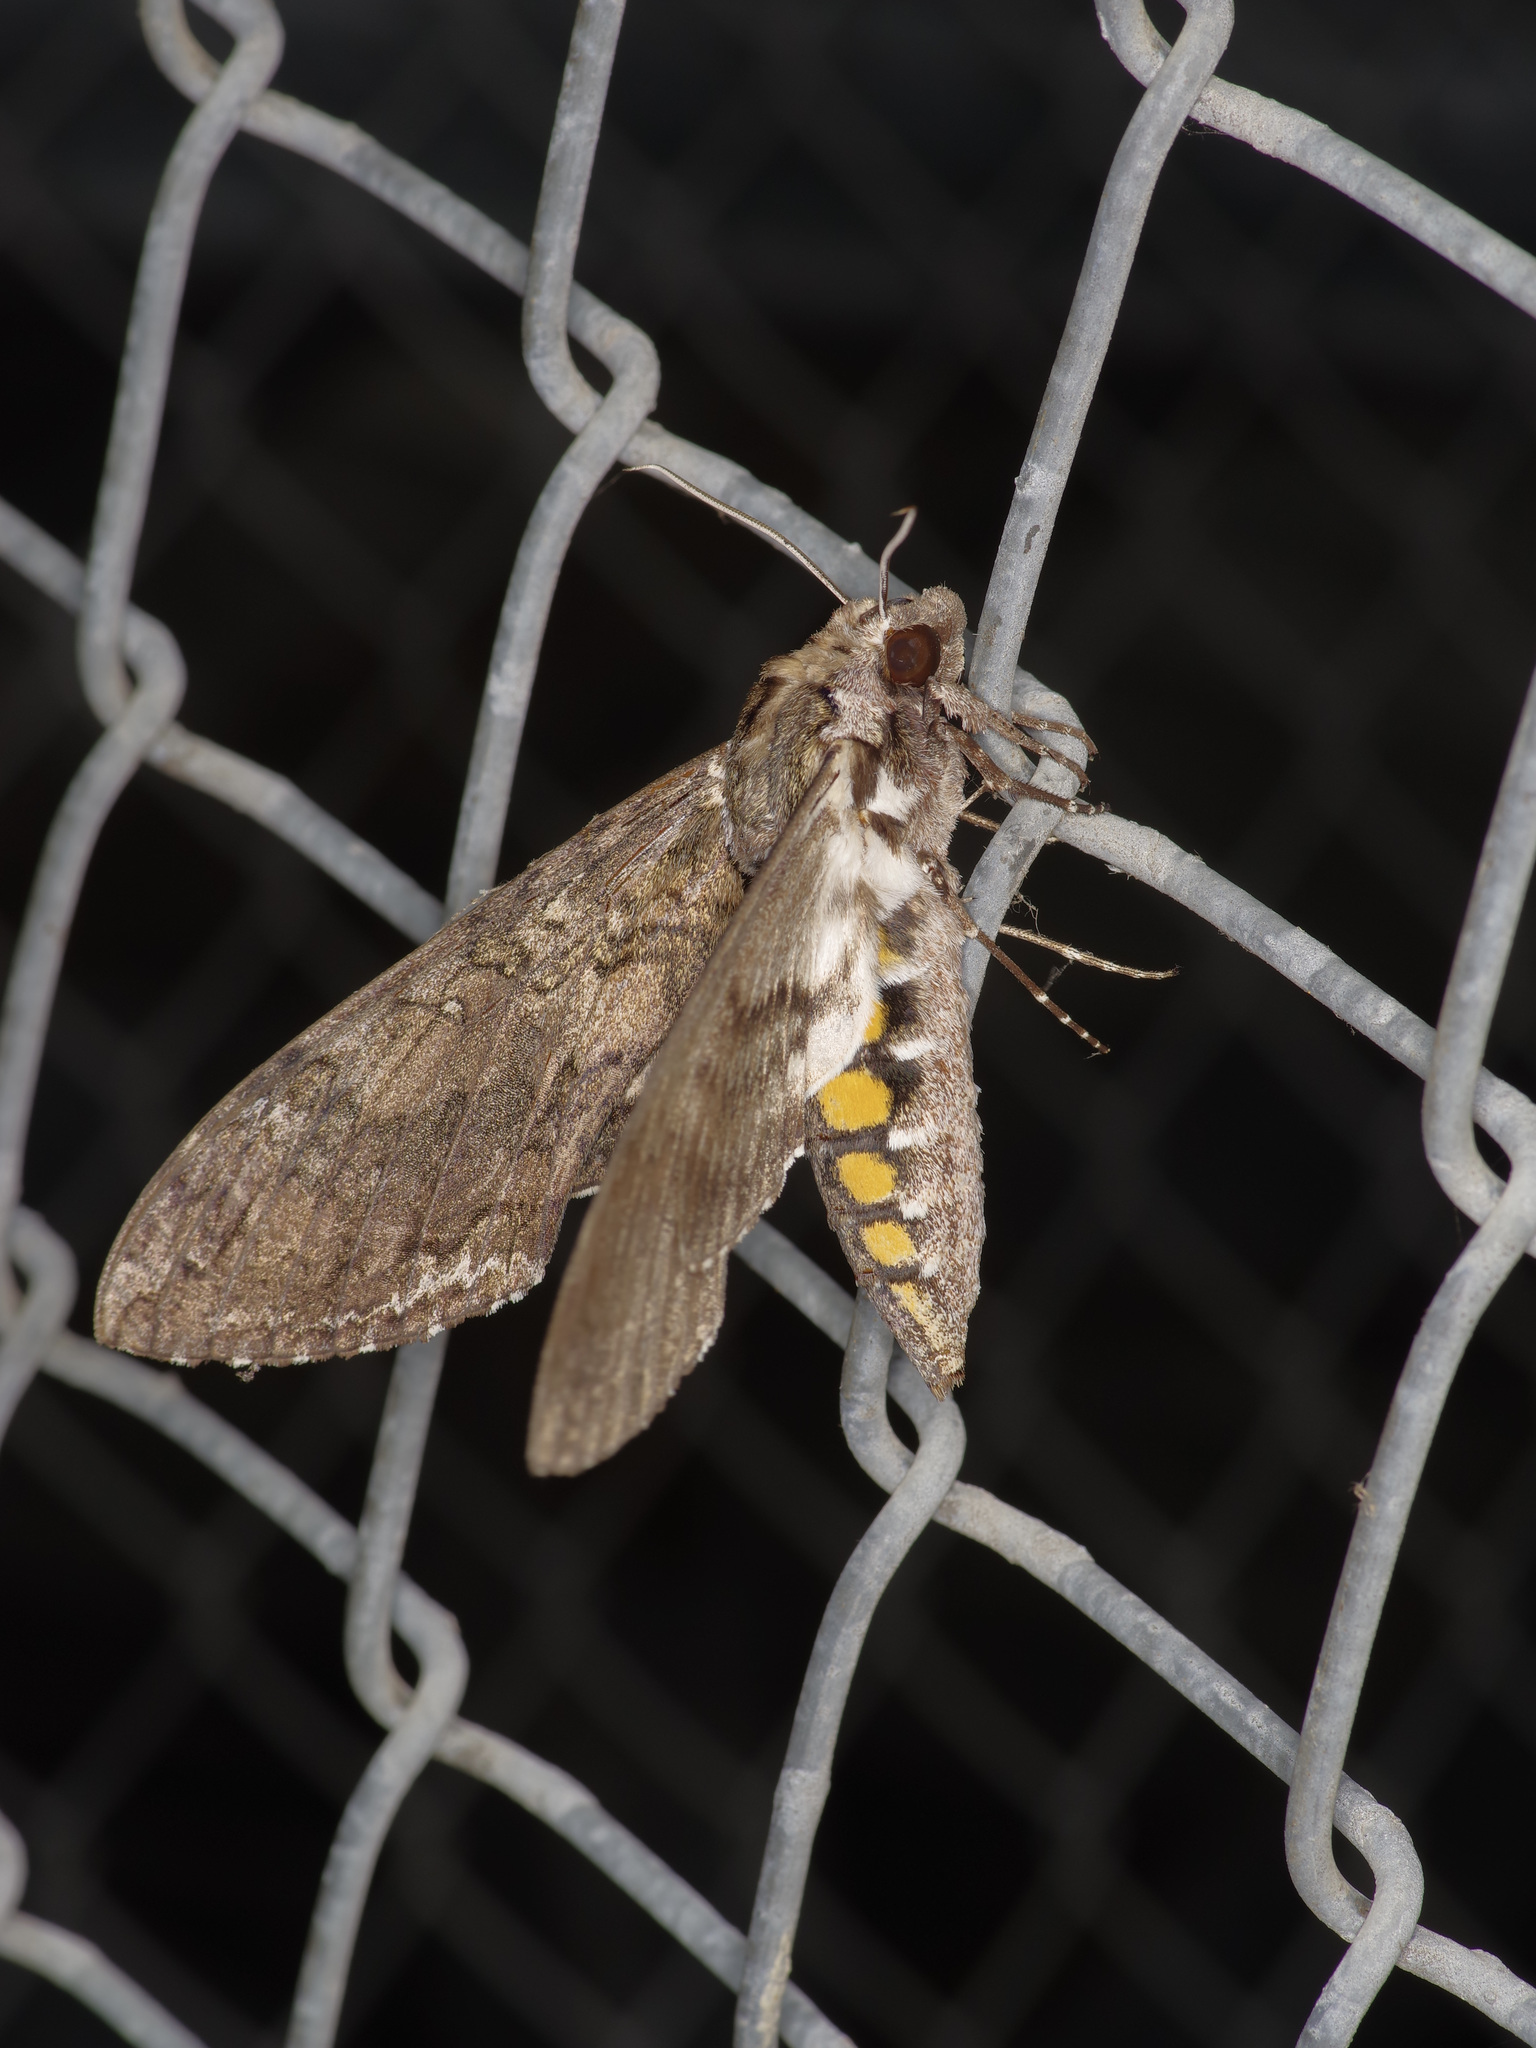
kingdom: Animalia
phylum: Arthropoda
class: Insecta
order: Lepidoptera
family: Sphingidae
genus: Manduca
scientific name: Manduca sexta
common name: Carolina sphinx
